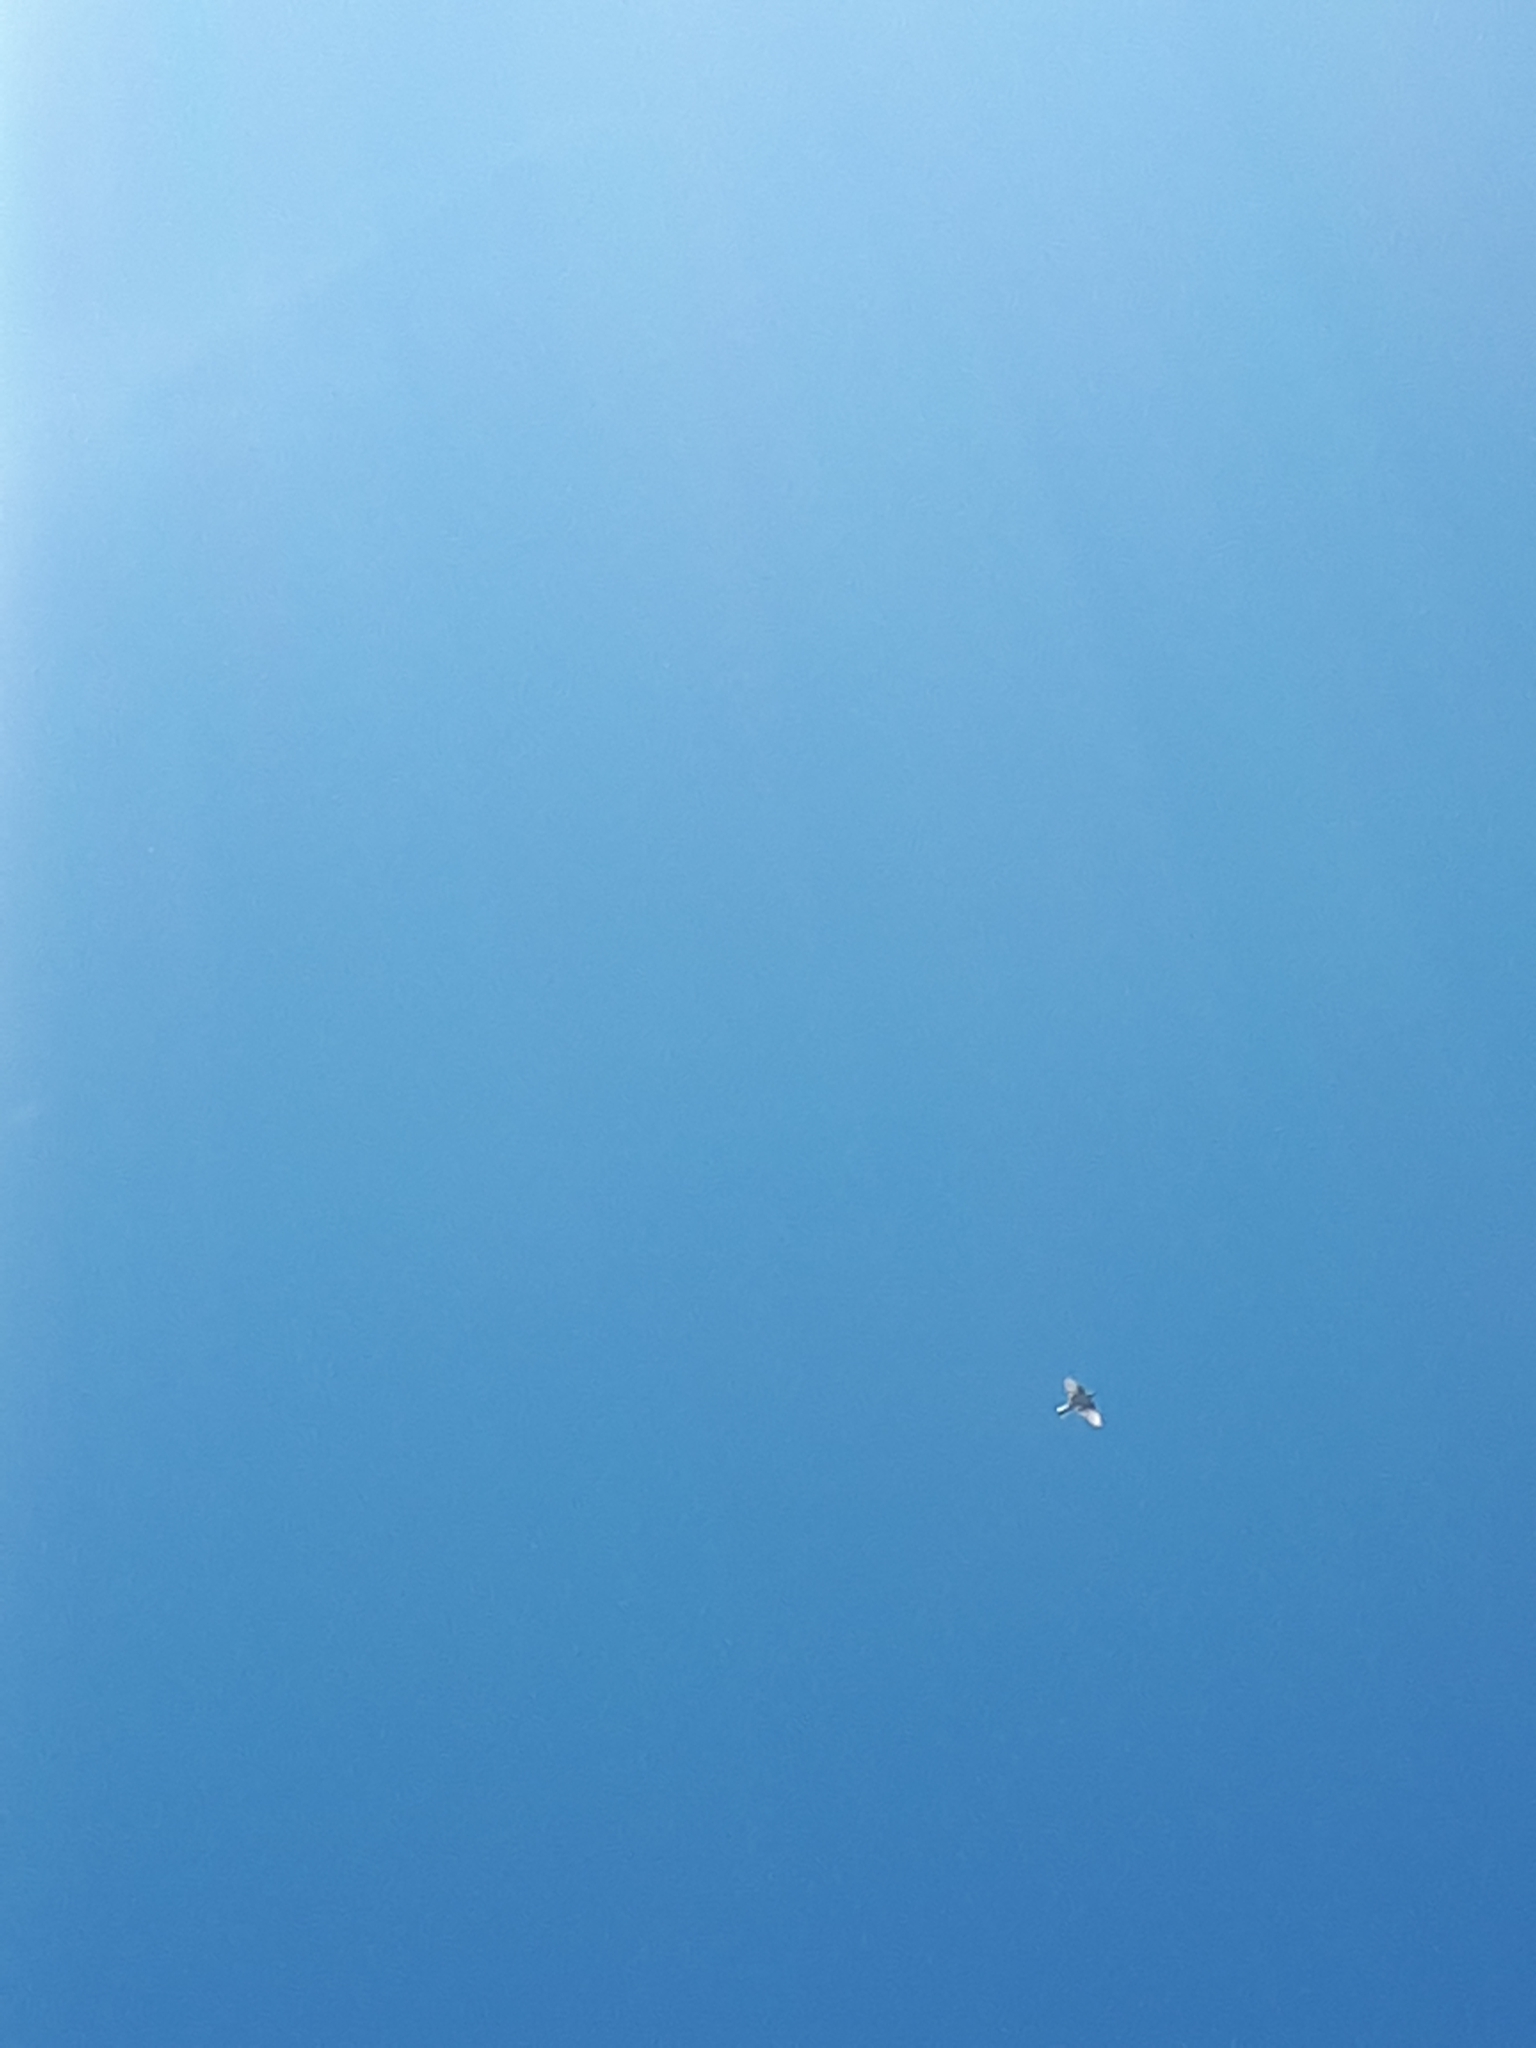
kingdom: Animalia
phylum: Chordata
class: Aves
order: Passeriformes
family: Motacillidae
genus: Motacilla
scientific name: Motacilla alba
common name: White wagtail
